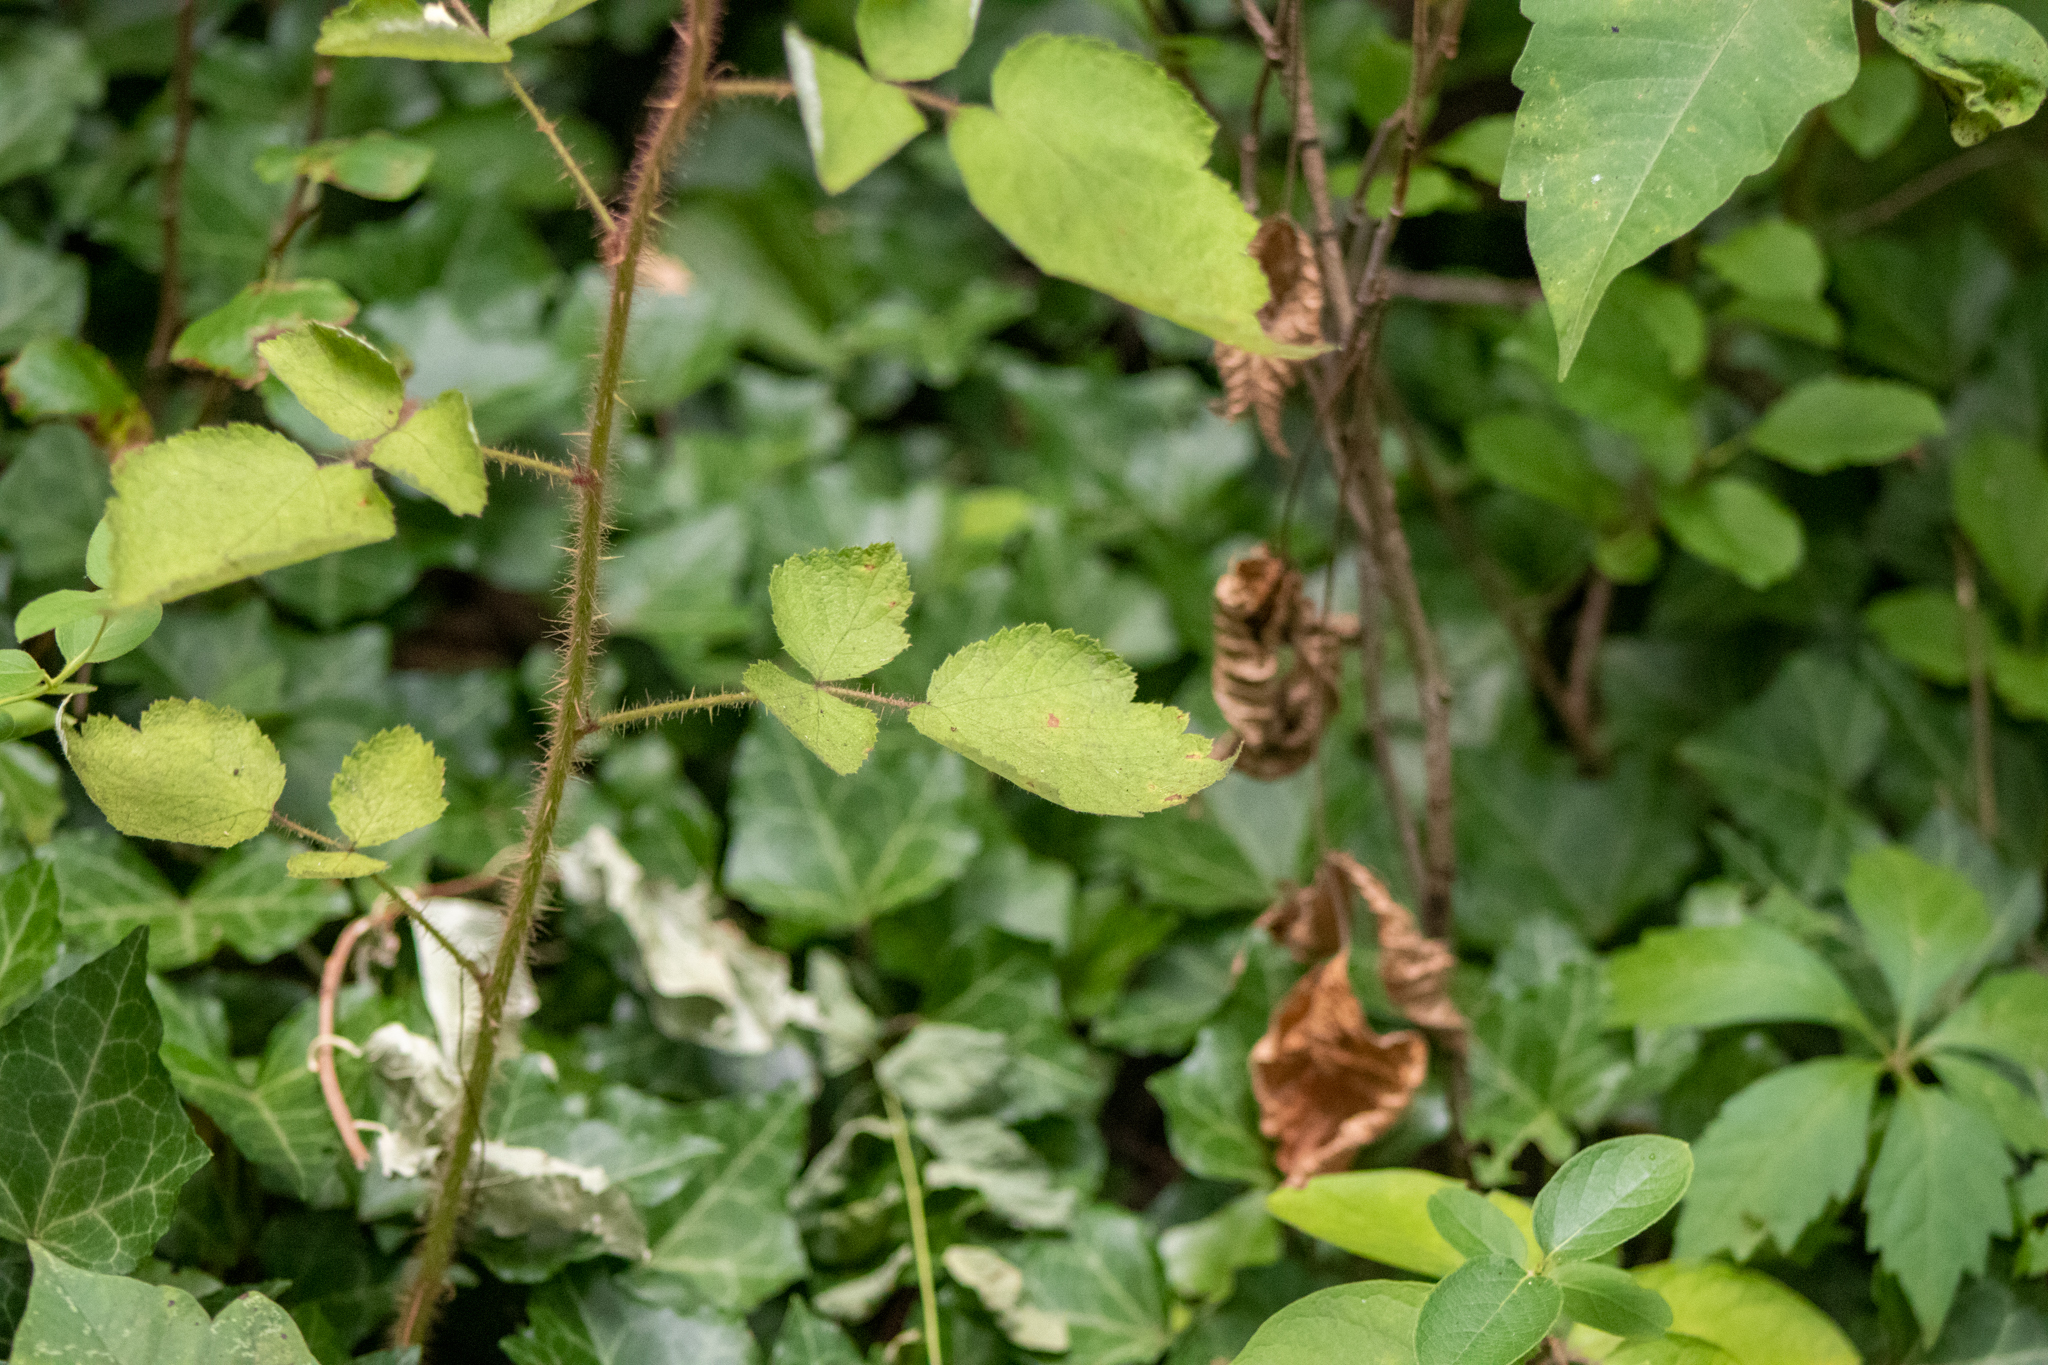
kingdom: Plantae
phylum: Tracheophyta
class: Magnoliopsida
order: Rosales
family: Rosaceae
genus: Rubus
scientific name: Rubus phoenicolasius
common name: Japanese wineberry
